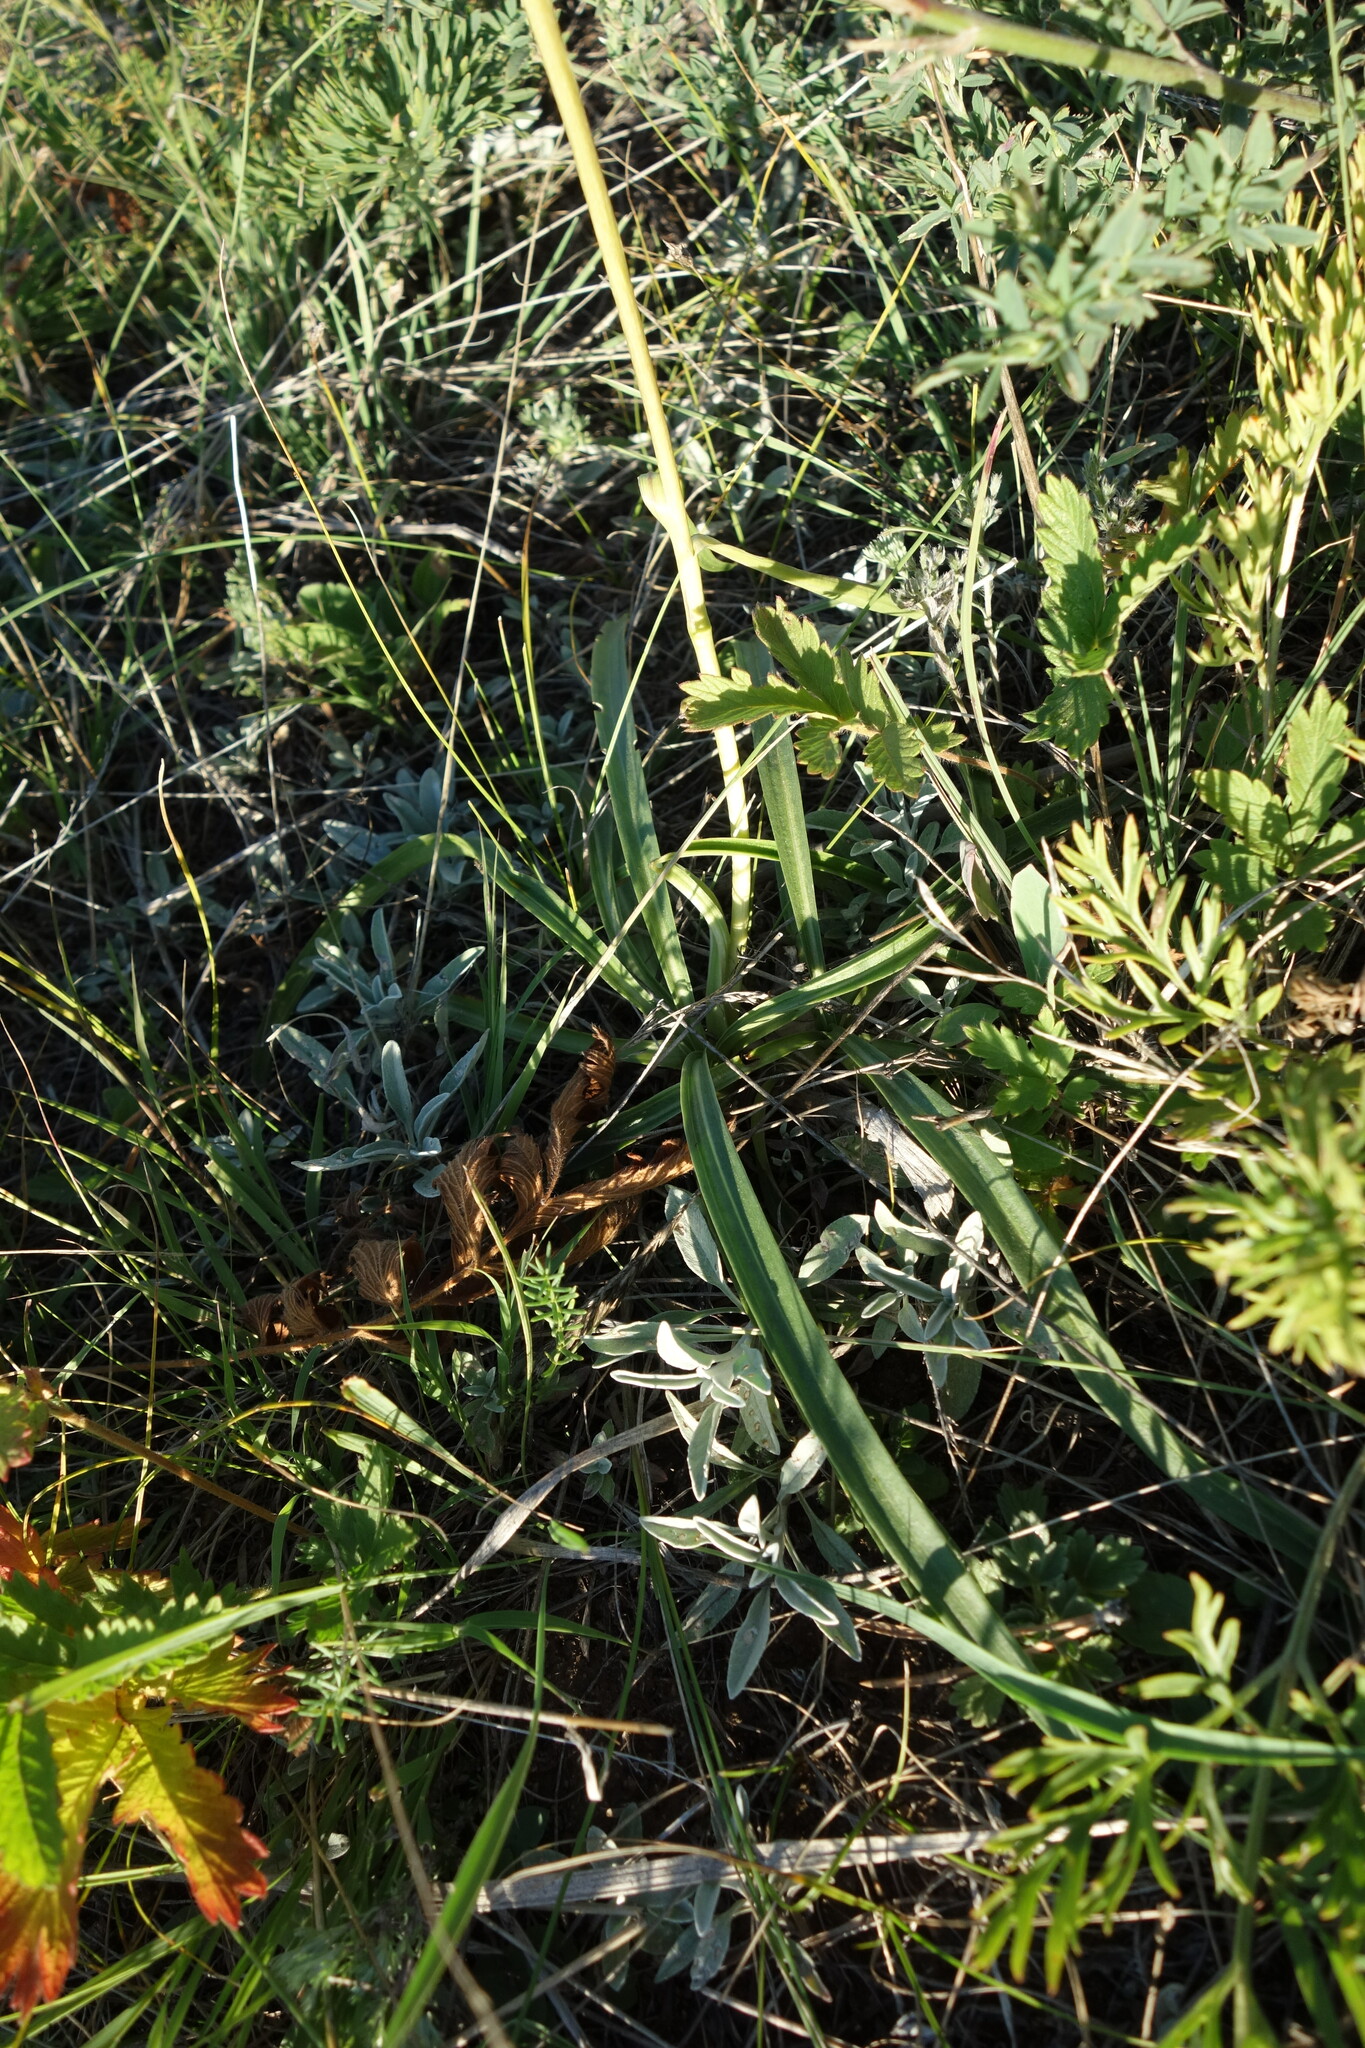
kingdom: Plantae
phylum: Tracheophyta
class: Magnoliopsida
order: Gentianales
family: Gentianaceae
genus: Gentiana
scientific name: Gentiana decumbens
